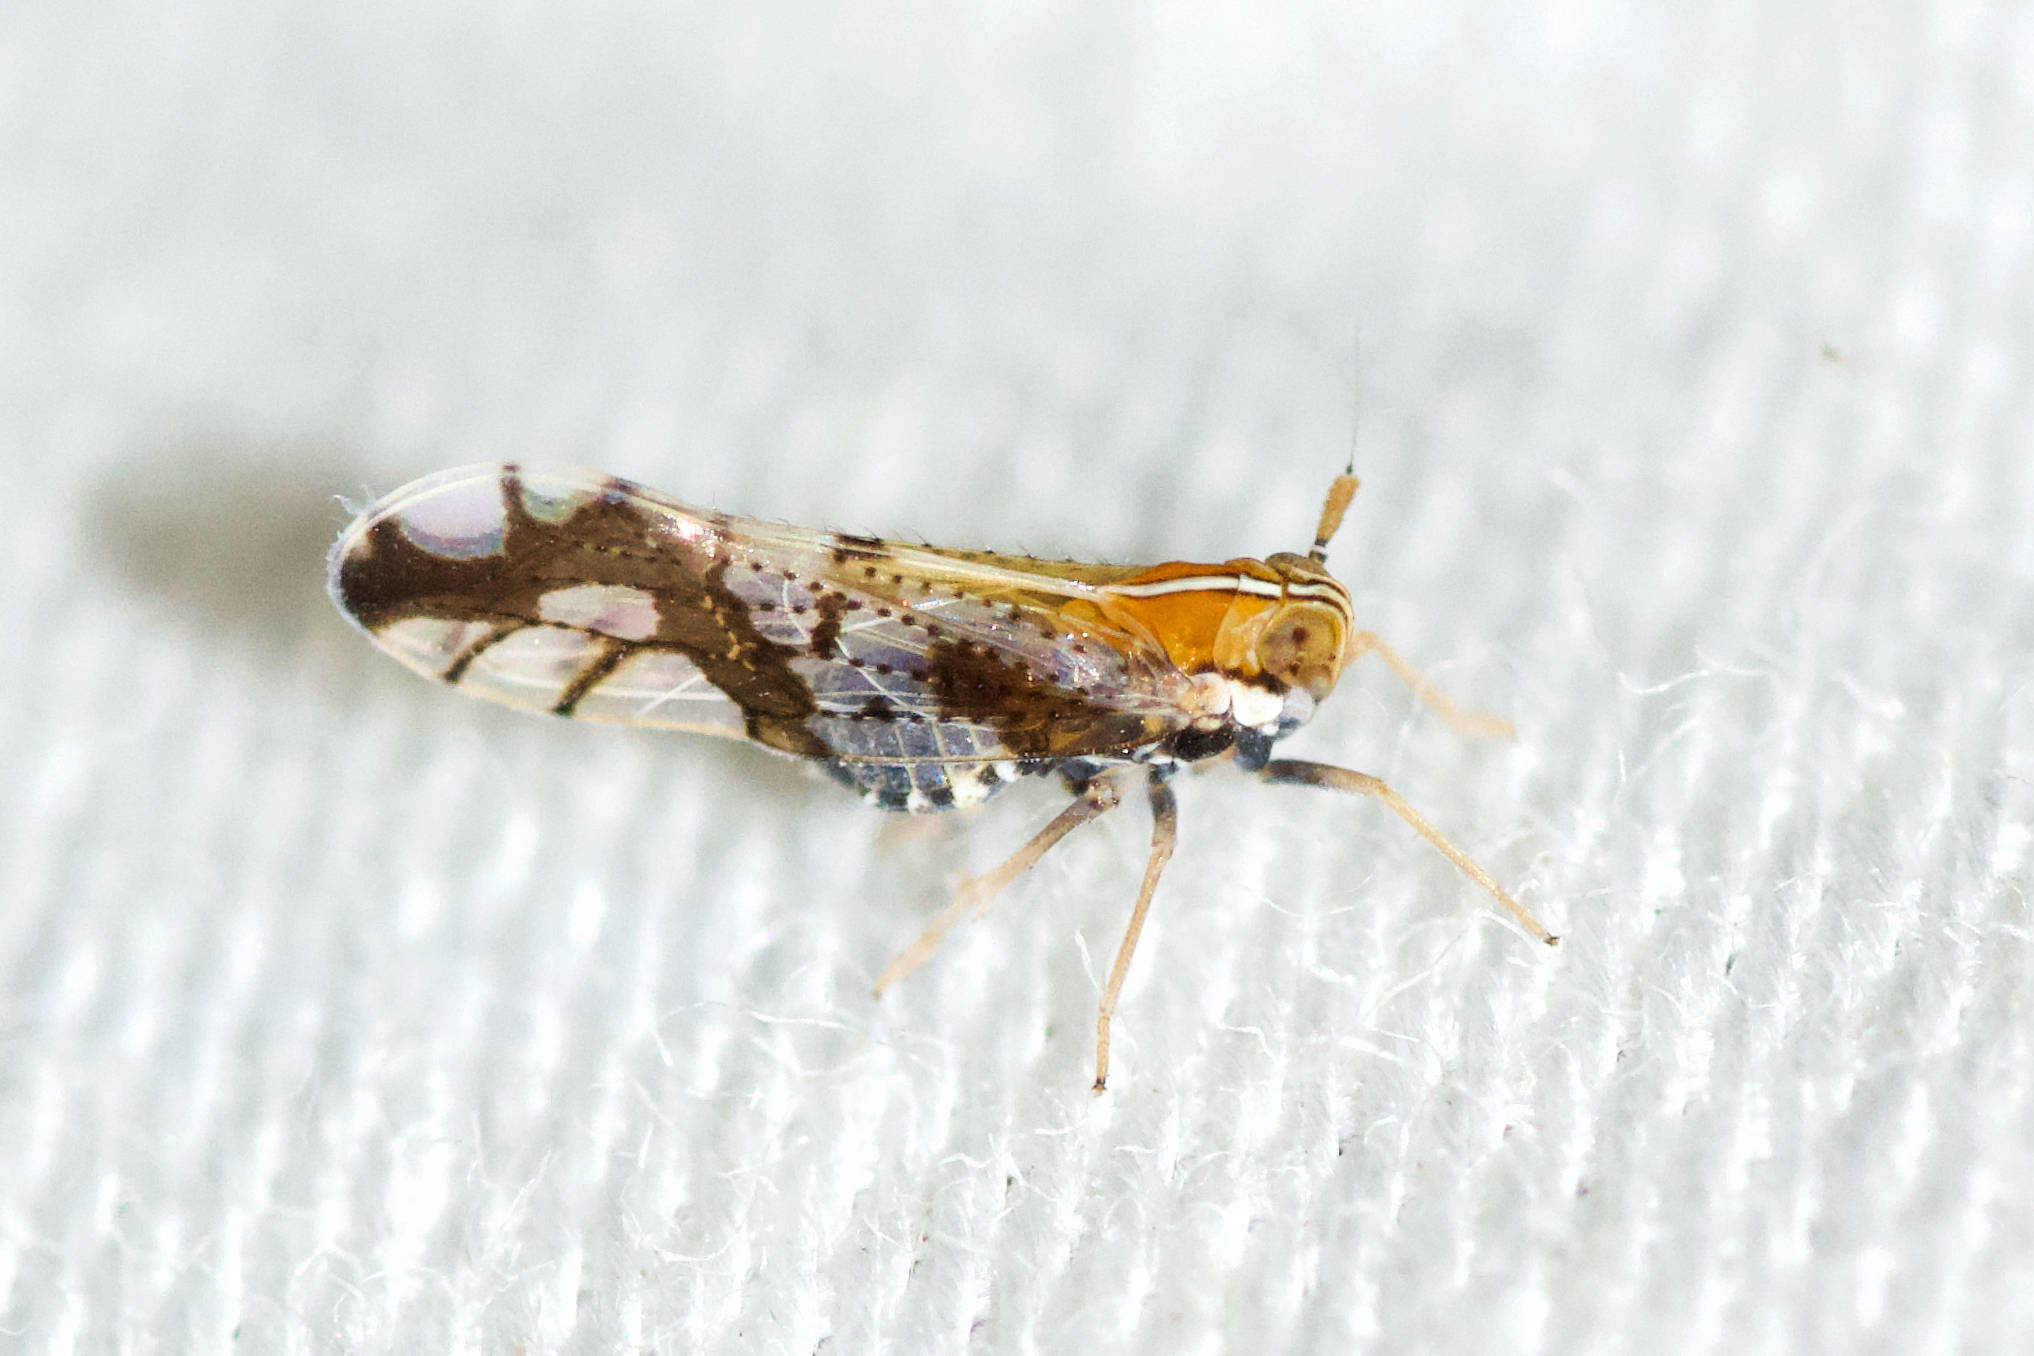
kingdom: Animalia
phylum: Arthropoda
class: Insecta
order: Hemiptera
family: Delphacidae
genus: Liburniella
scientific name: Liburniella ornata
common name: Ornate planthopper
